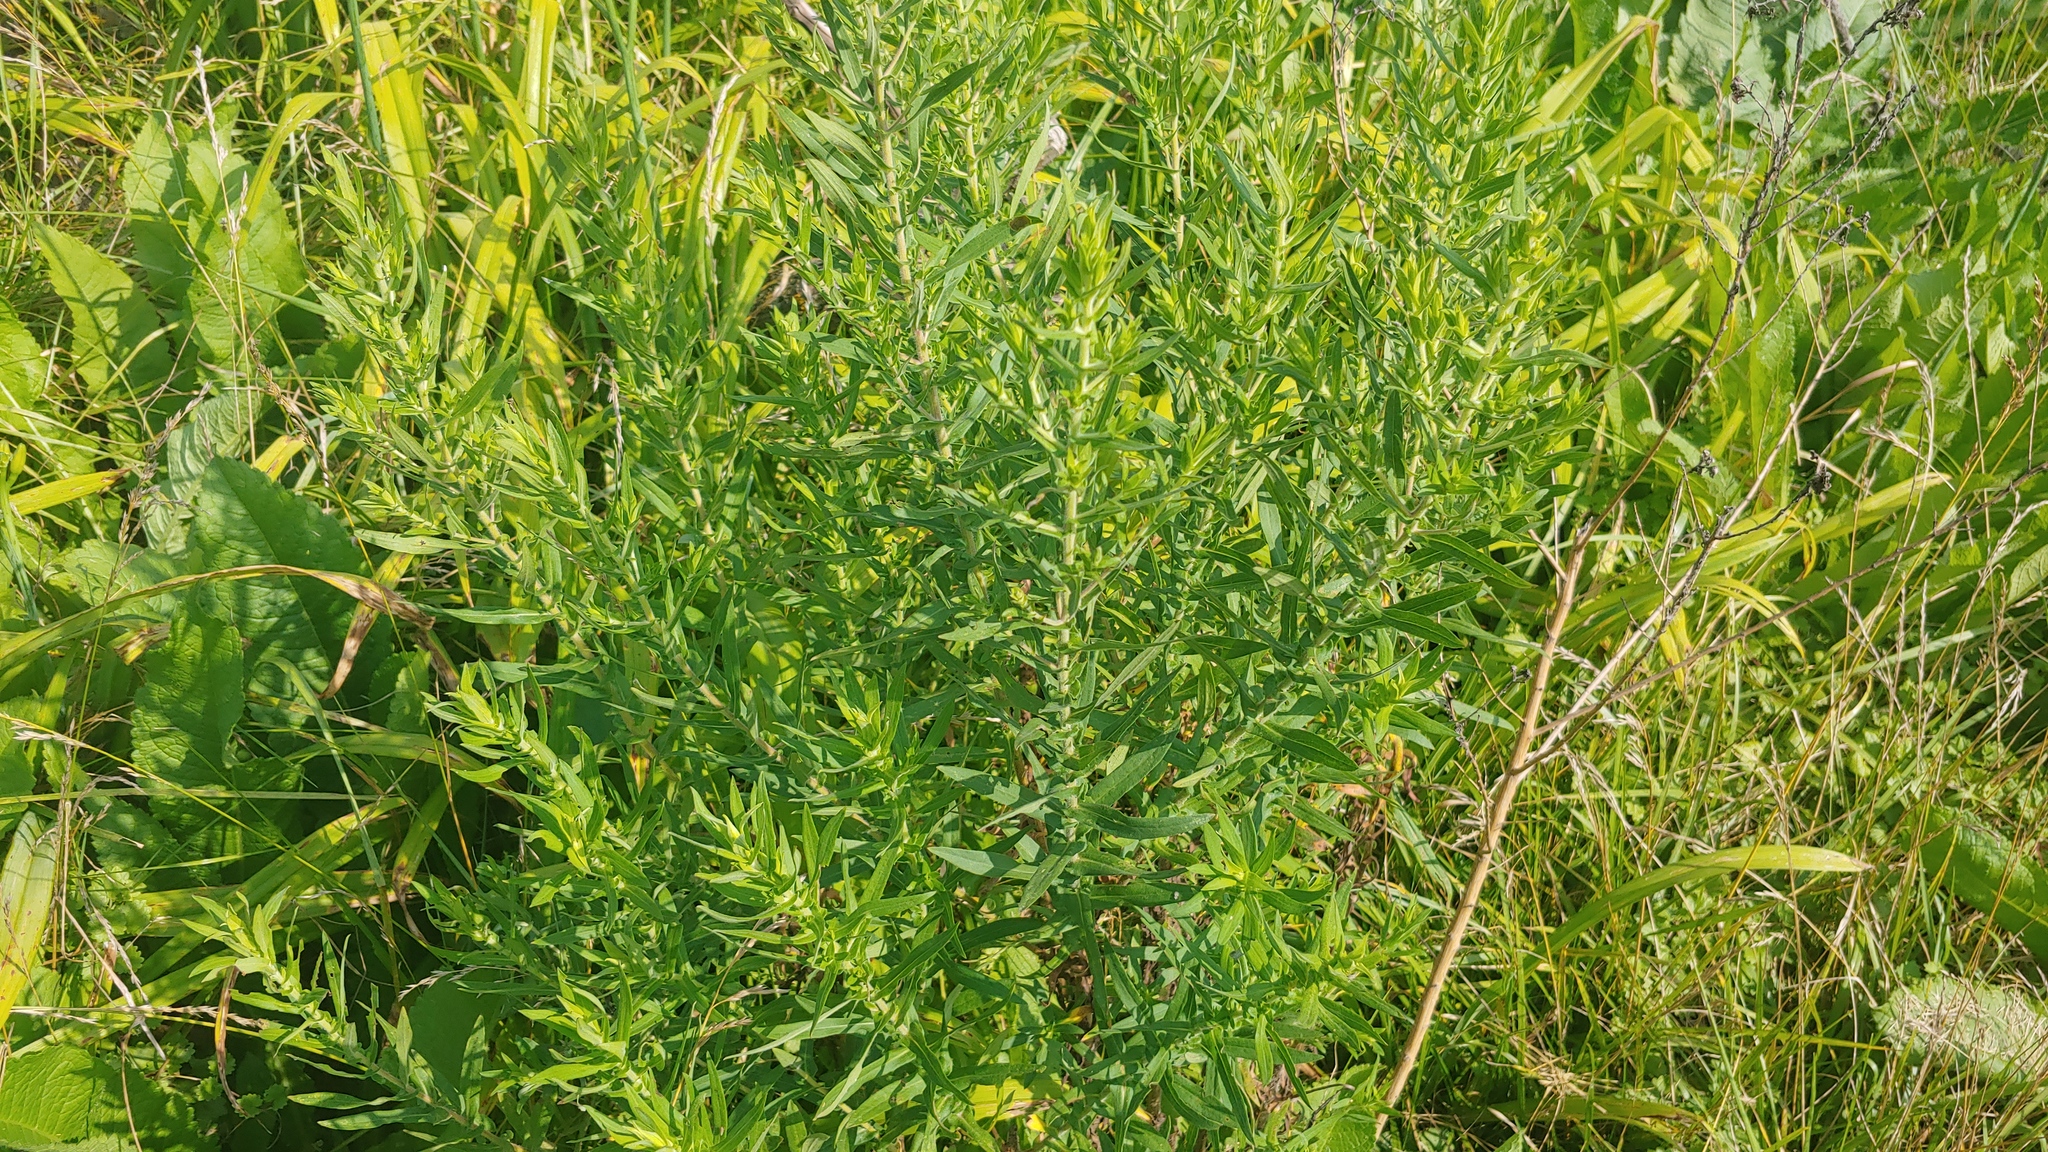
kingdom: Plantae
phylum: Tracheophyta
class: Magnoliopsida
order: Asterales
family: Asteraceae
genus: Symphyotrichum
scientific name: Symphyotrichum novae-angliae
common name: Michaelmas daisy
